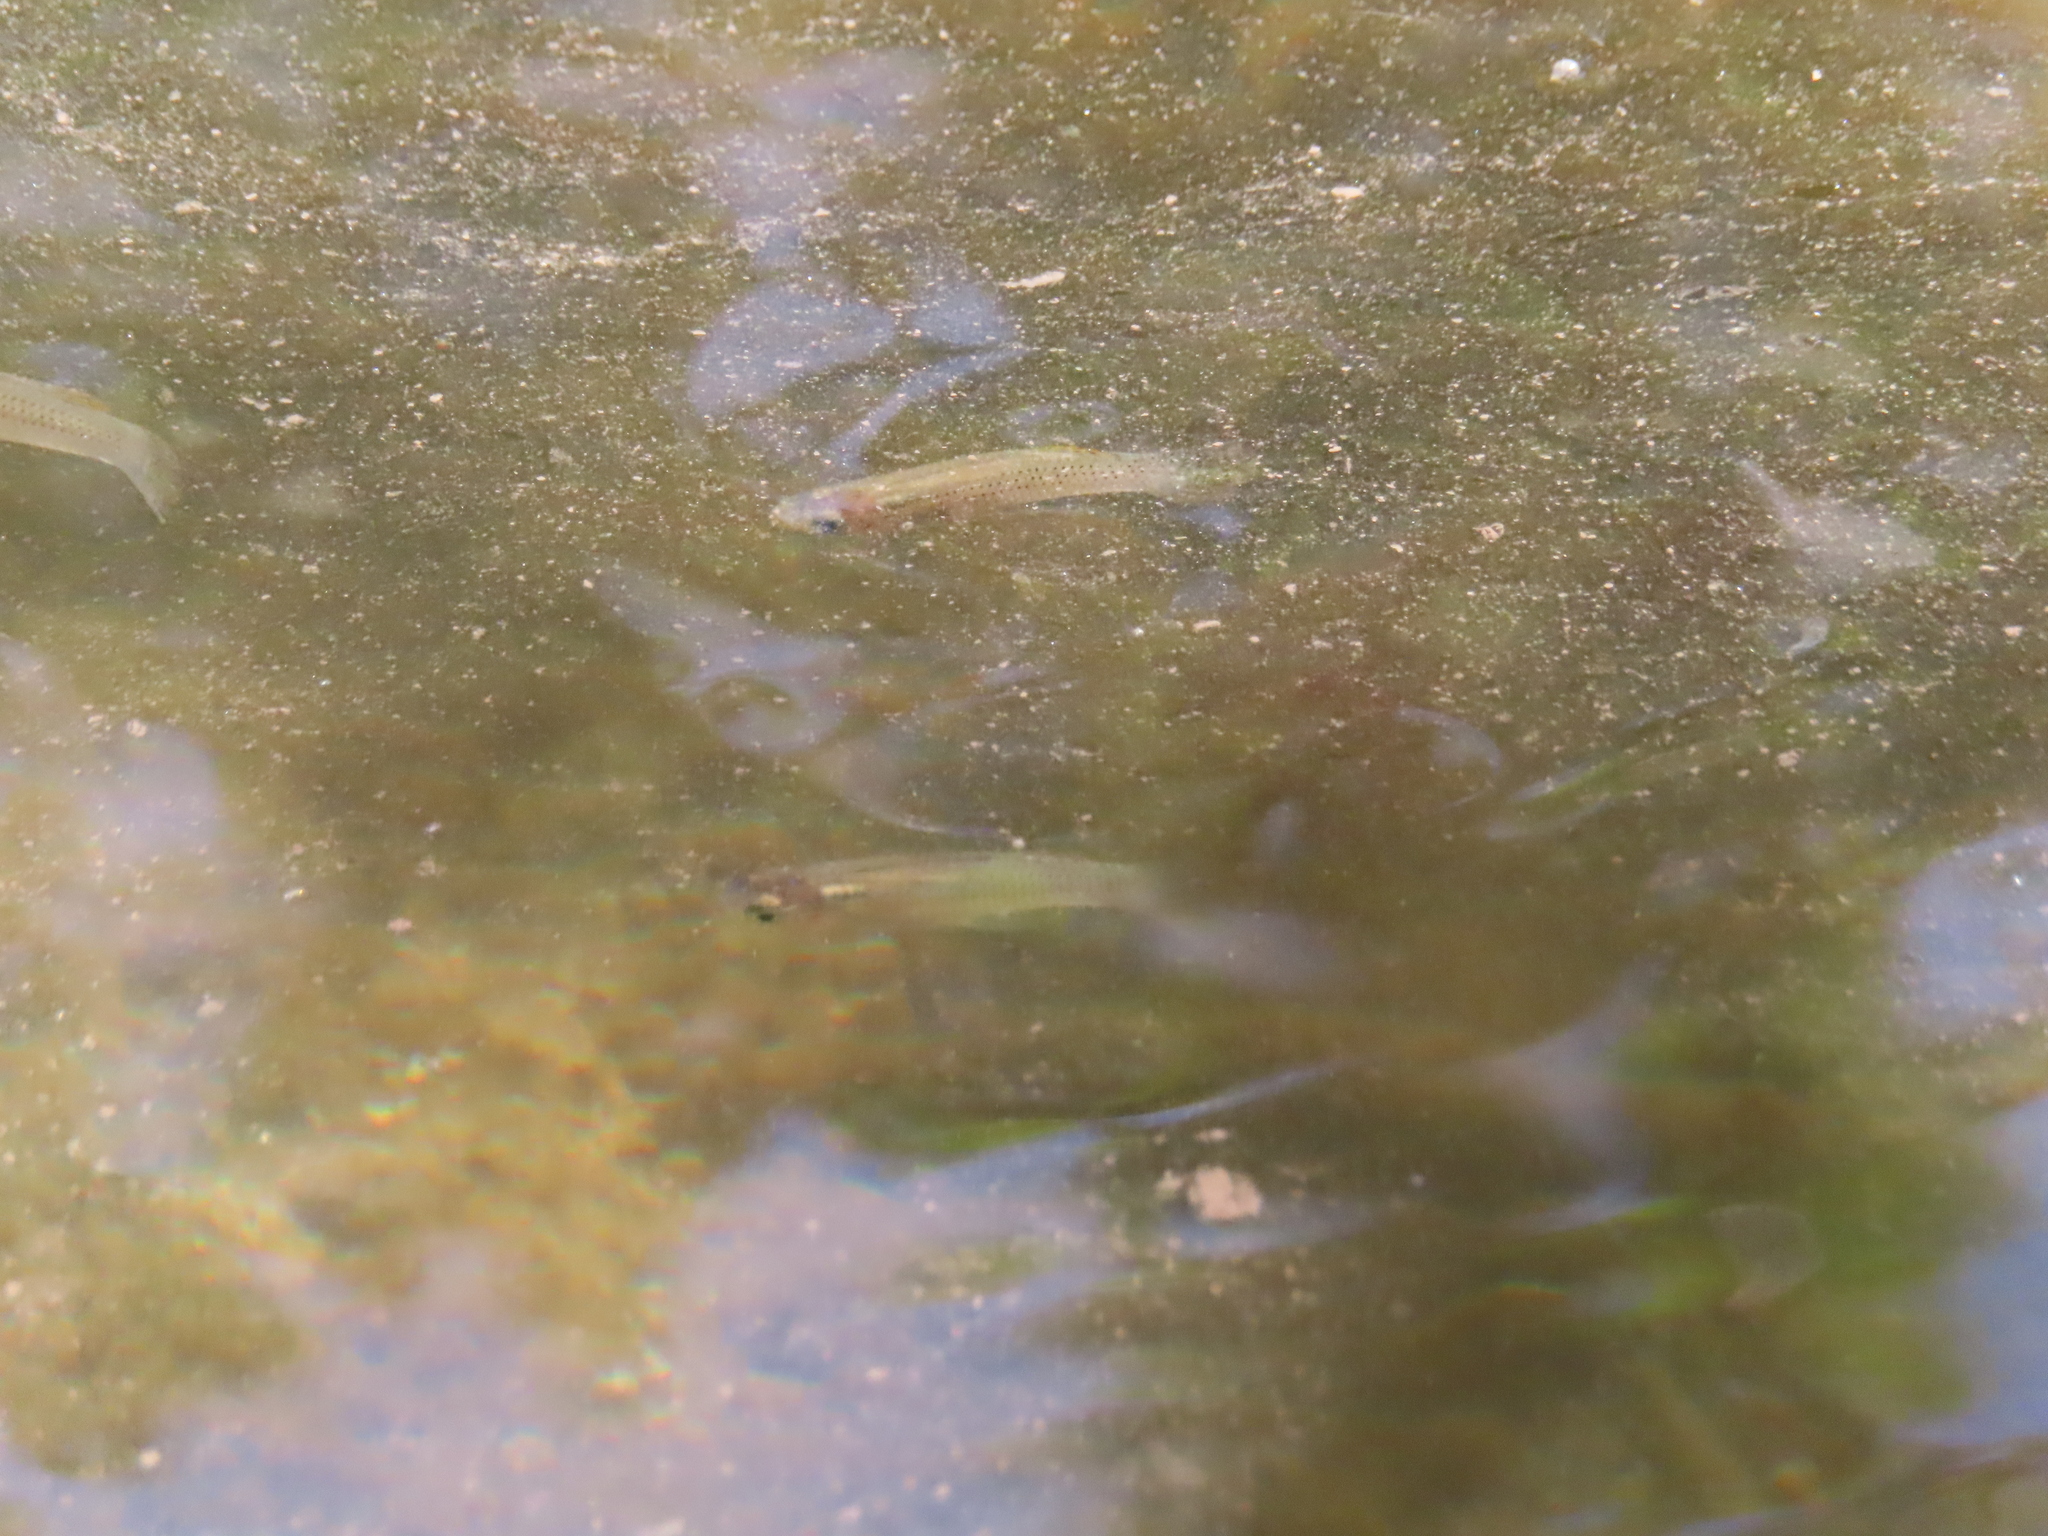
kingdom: Animalia
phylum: Chordata
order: Cyprinodontiformes
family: Poeciliidae
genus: Gambusia
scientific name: Gambusia holbrooki
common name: Eastern mosquitofish
